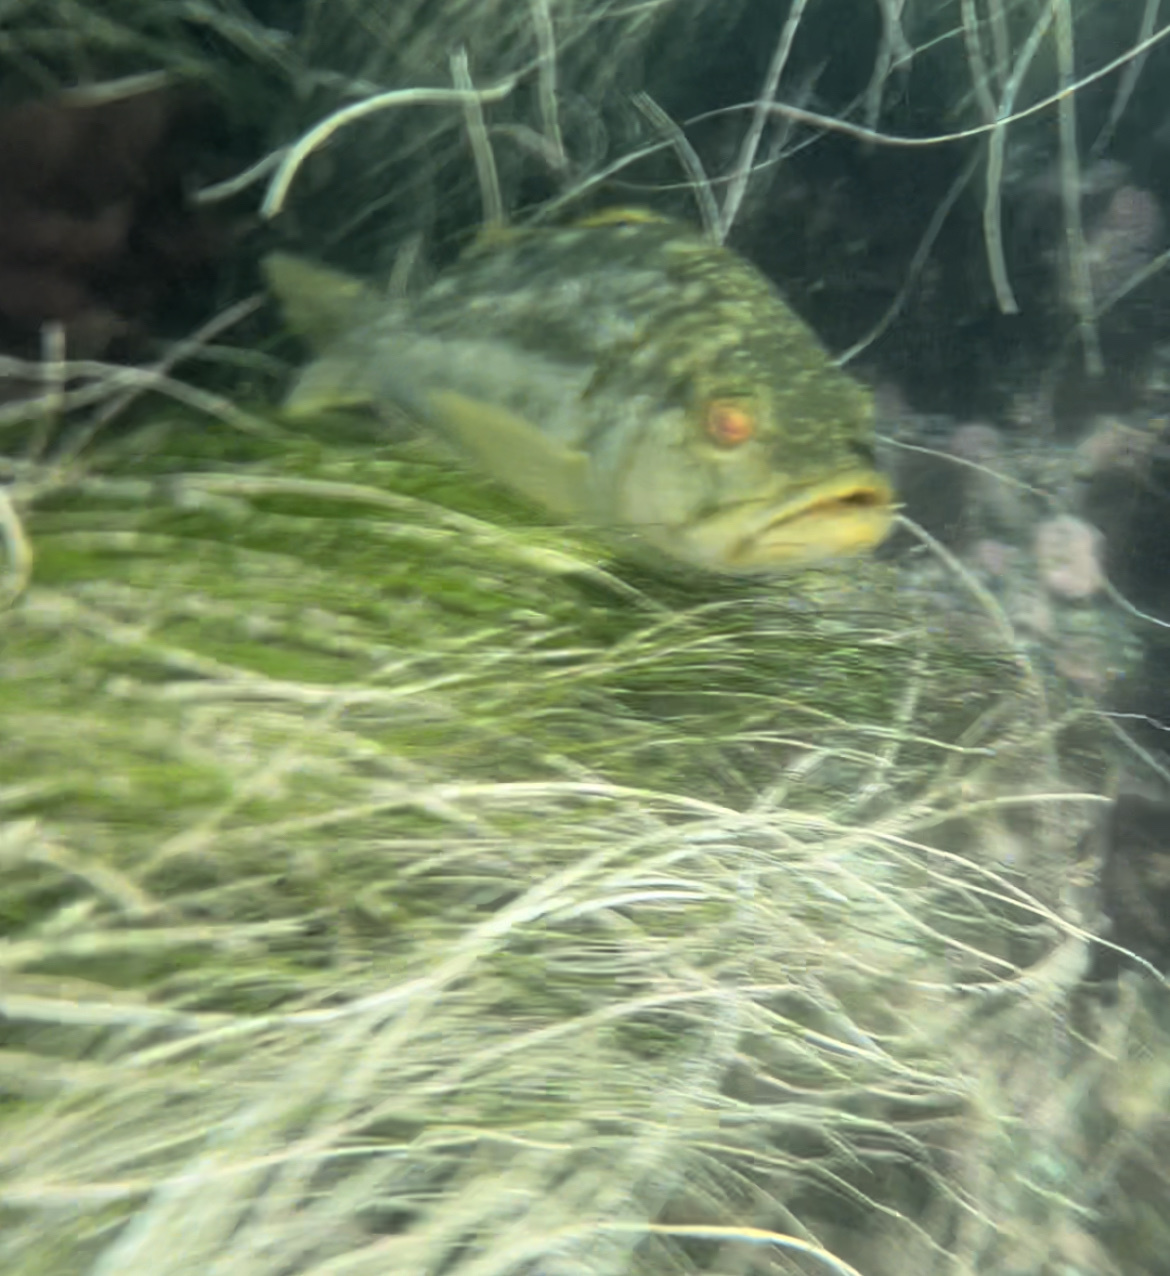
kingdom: Animalia
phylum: Chordata
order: Perciformes
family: Serranidae
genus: Paralabrax
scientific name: Paralabrax clathratus
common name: Kelp bass
